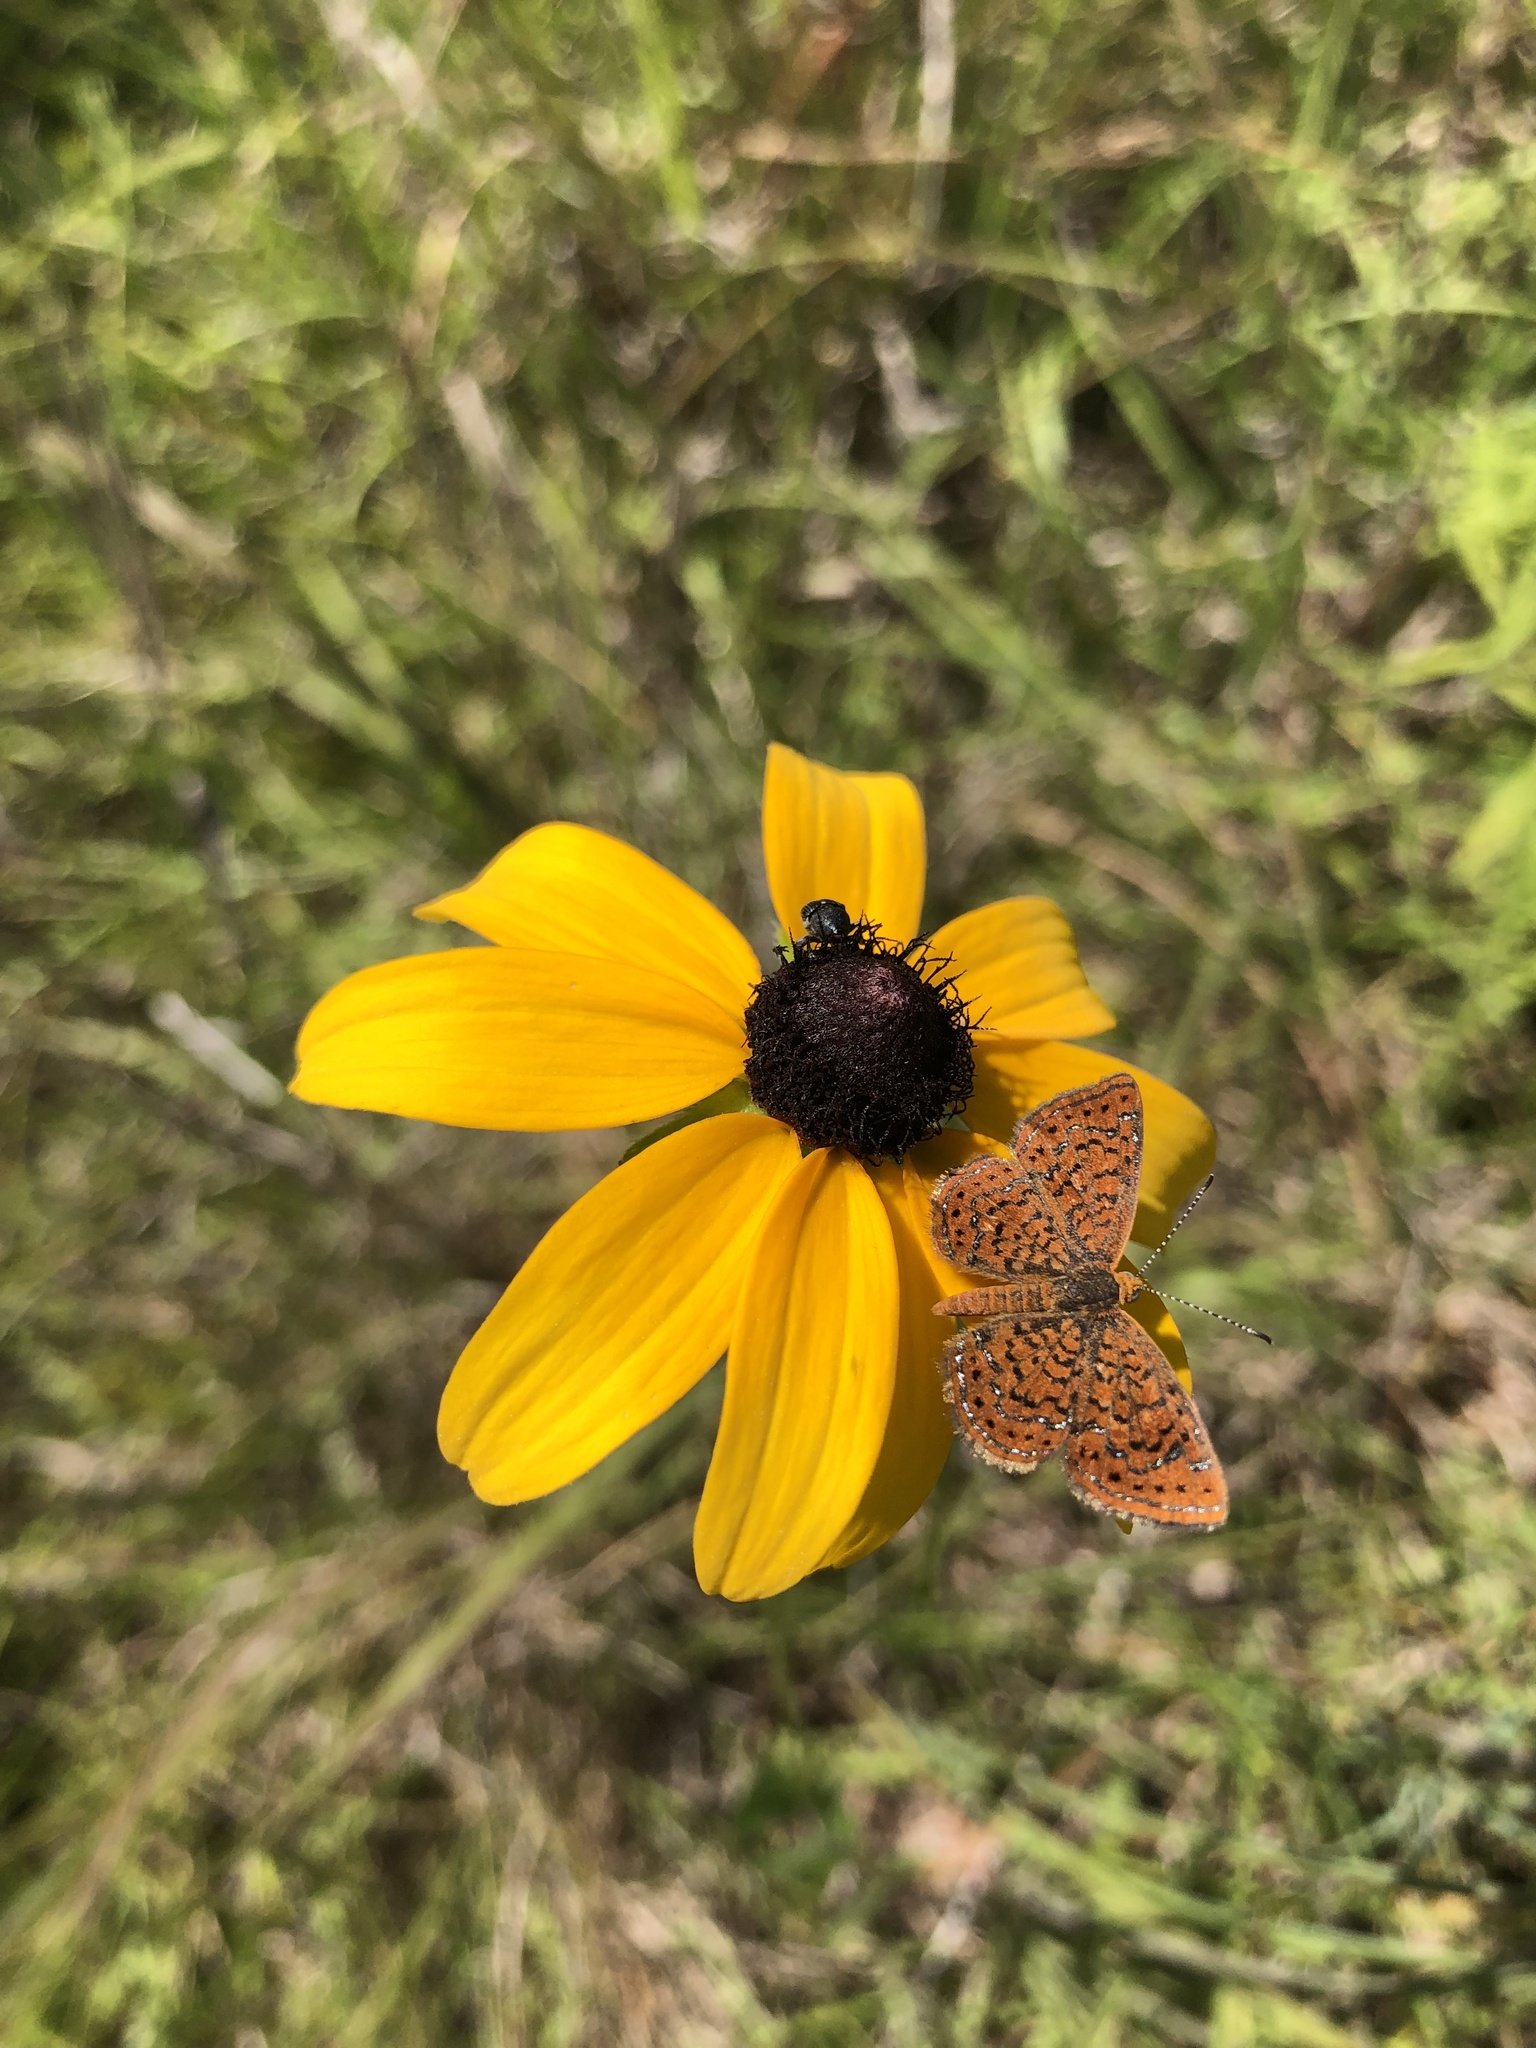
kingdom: Animalia
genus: Calephelis
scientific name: Calephelis virginiensis
